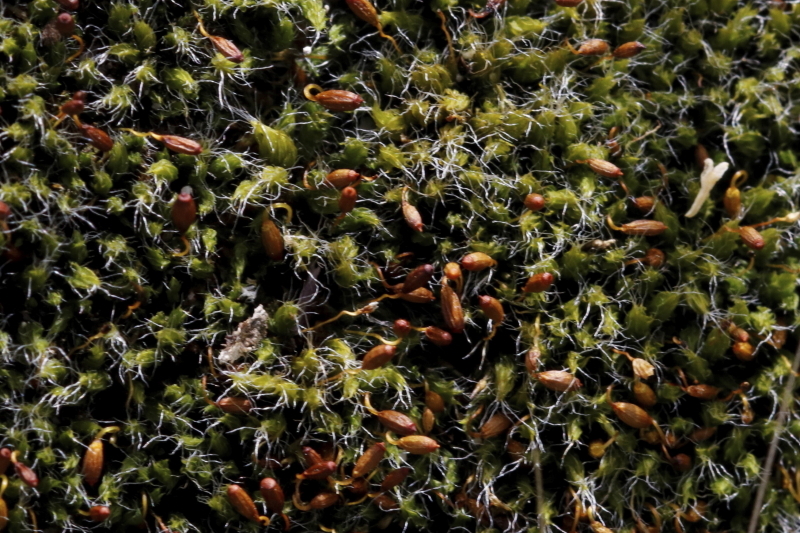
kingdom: Plantae
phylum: Bryophyta
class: Bryopsida
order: Grimmiales
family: Grimmiaceae
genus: Grimmia
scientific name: Grimmia pulvinata
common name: Grey-cushioned grimmia
